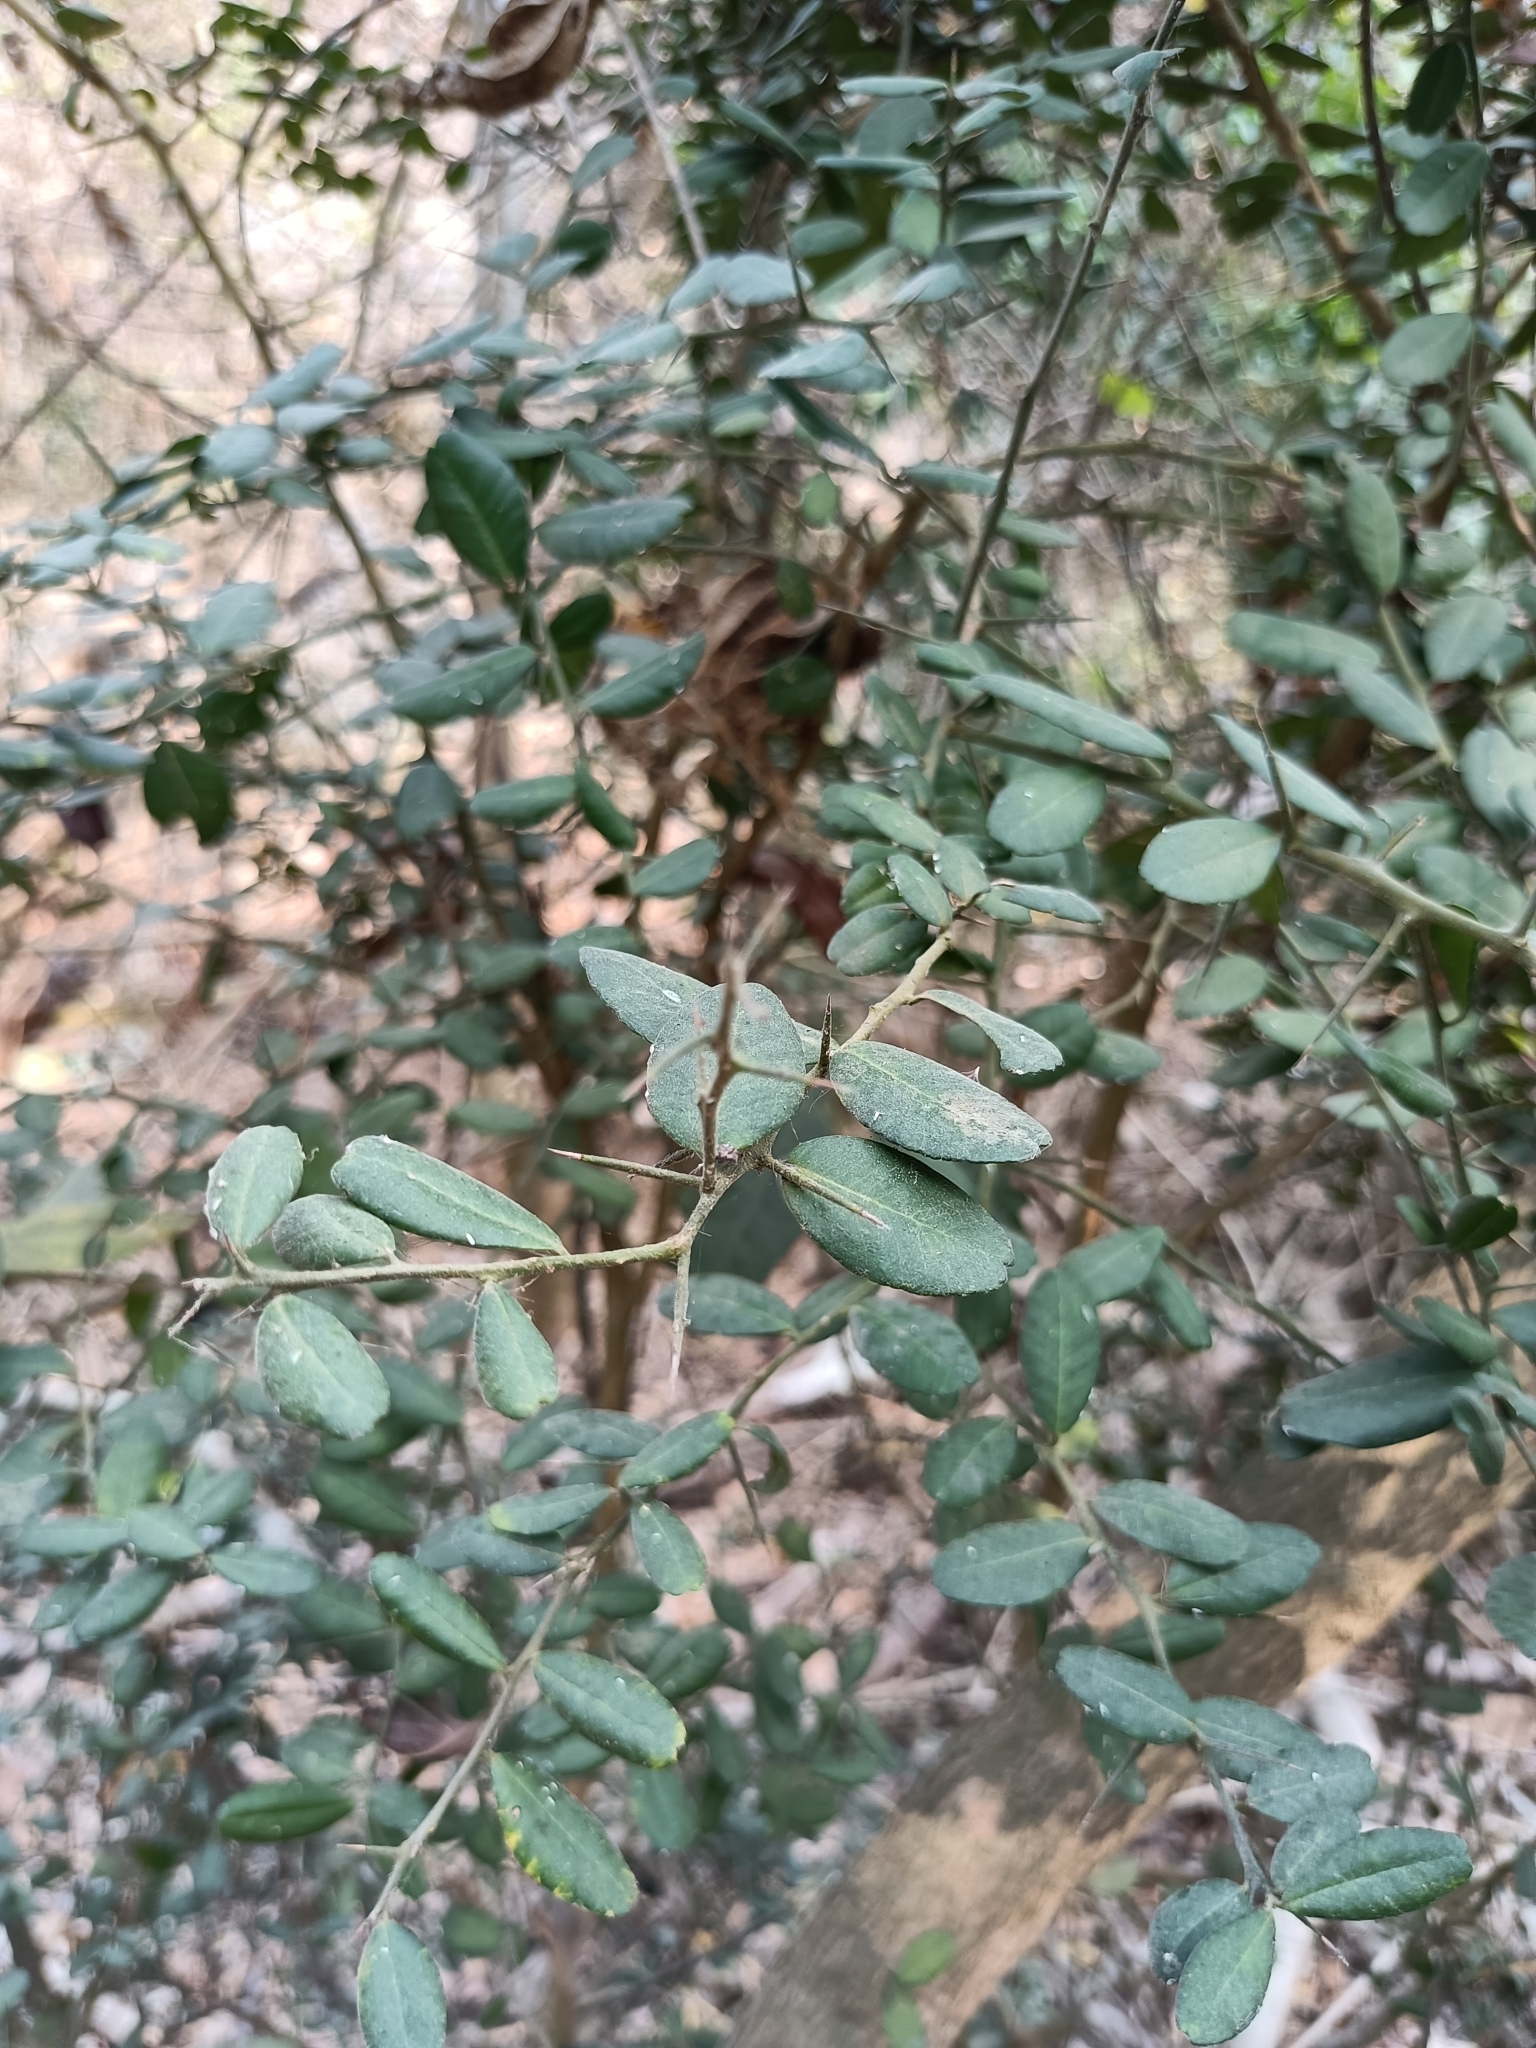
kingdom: Plantae
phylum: Tracheophyta
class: Magnoliopsida
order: Sapindales
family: Rutaceae
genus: Atalantia
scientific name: Atalantia buxifolia
